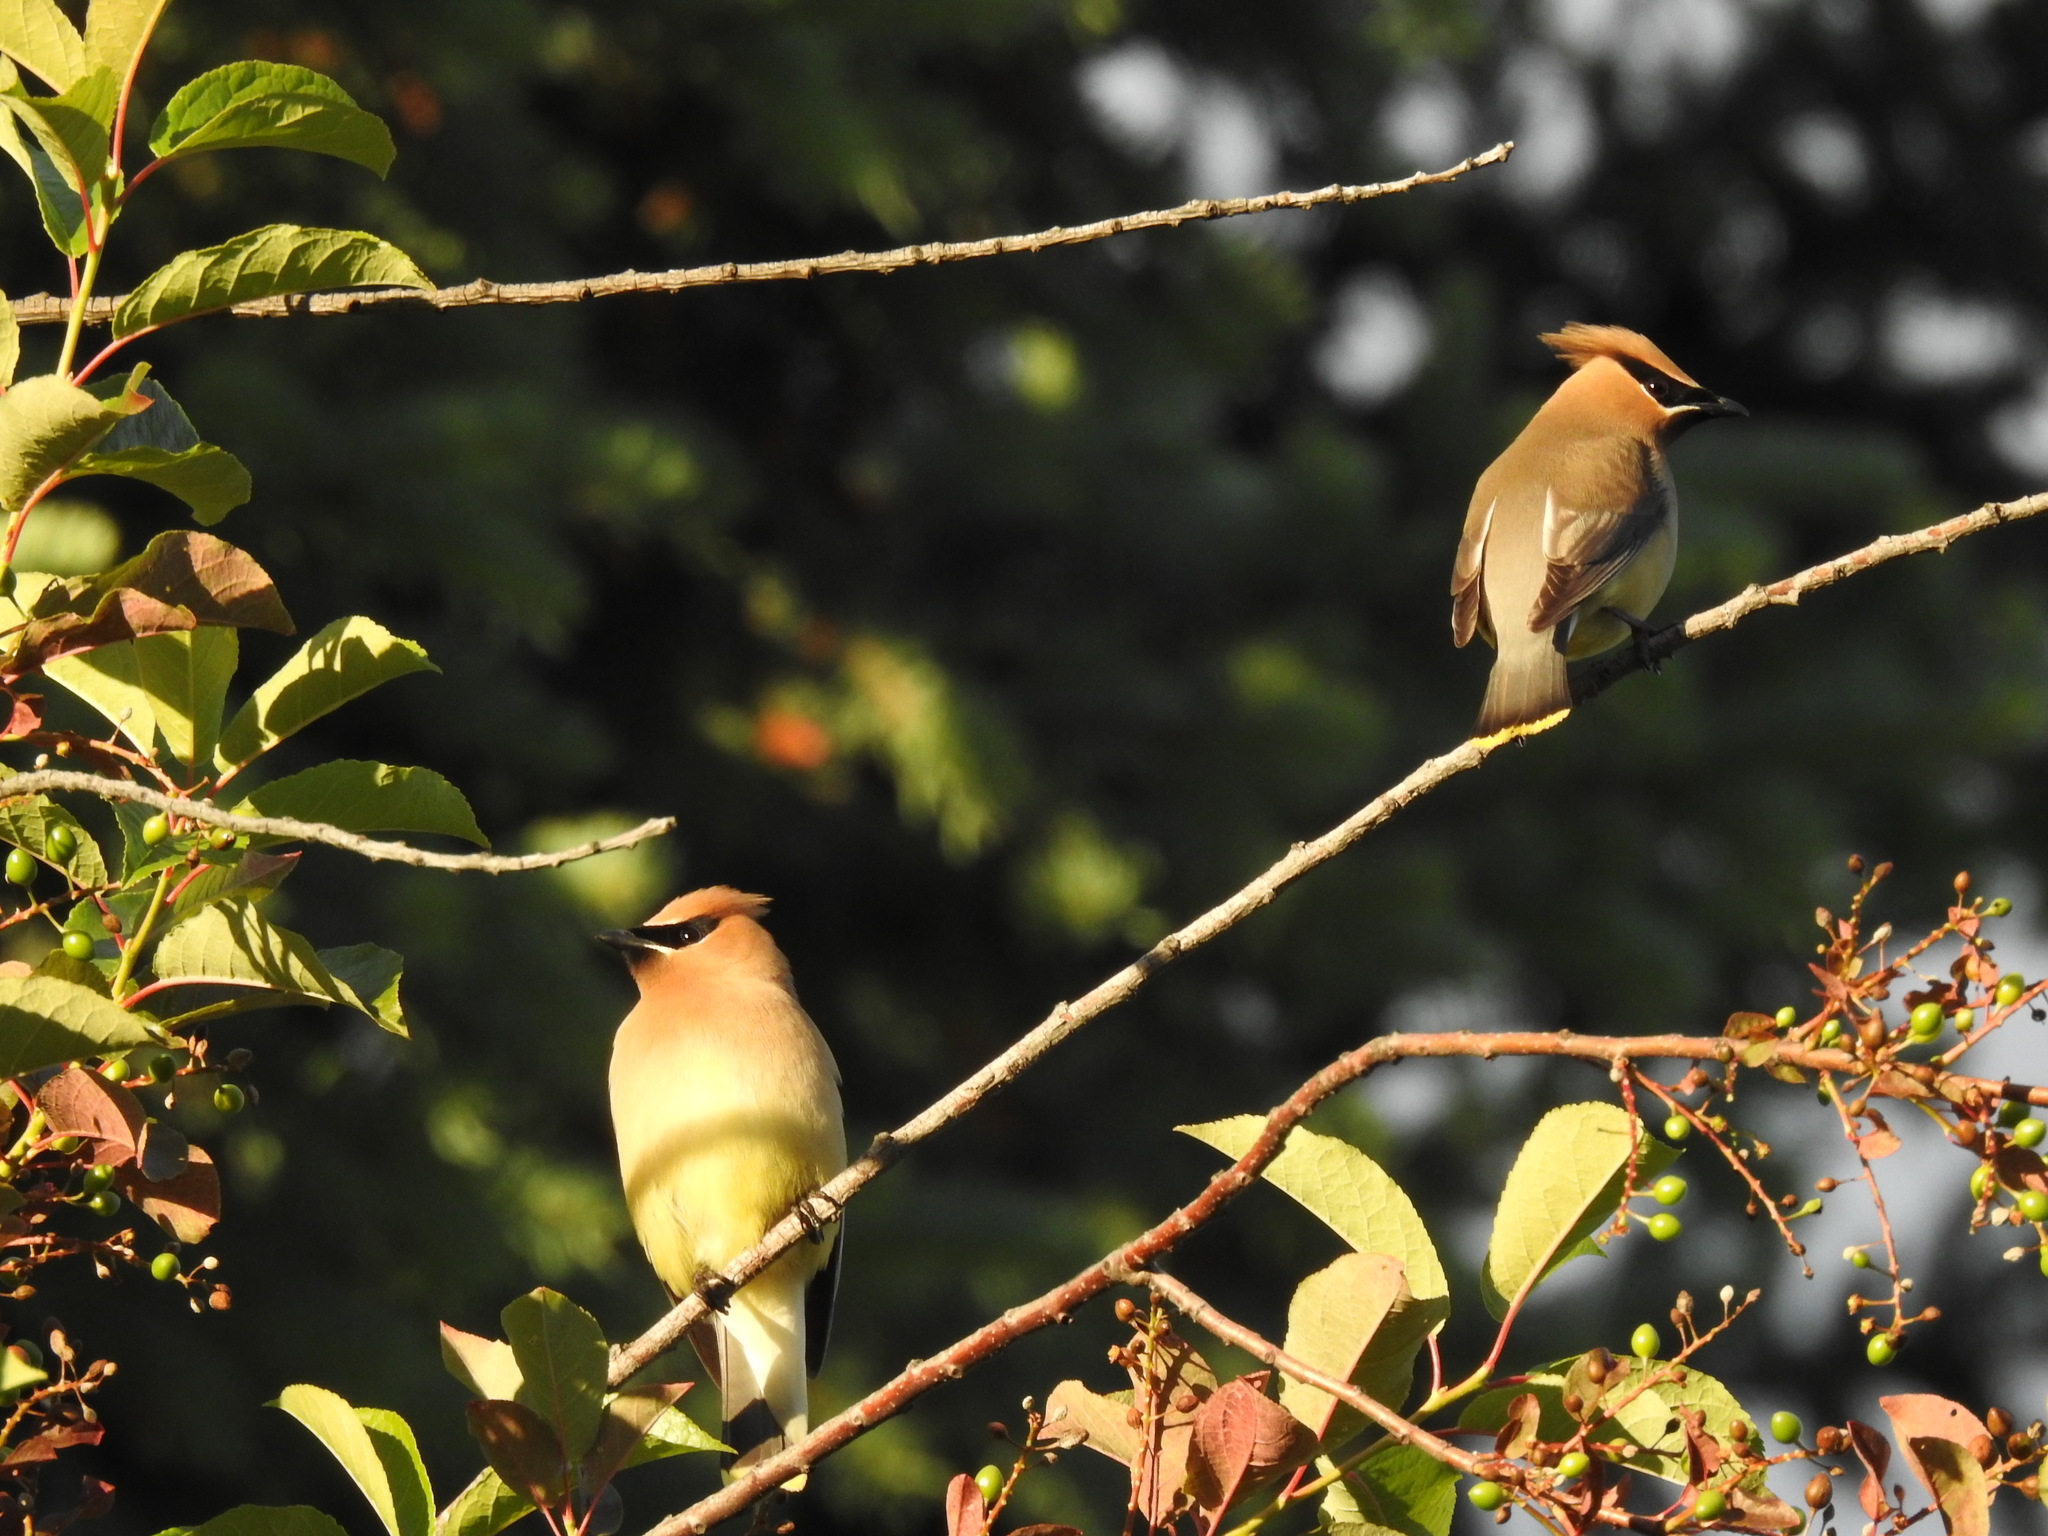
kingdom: Animalia
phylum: Chordata
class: Aves
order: Passeriformes
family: Bombycillidae
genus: Bombycilla
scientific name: Bombycilla cedrorum
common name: Cedar waxwing
